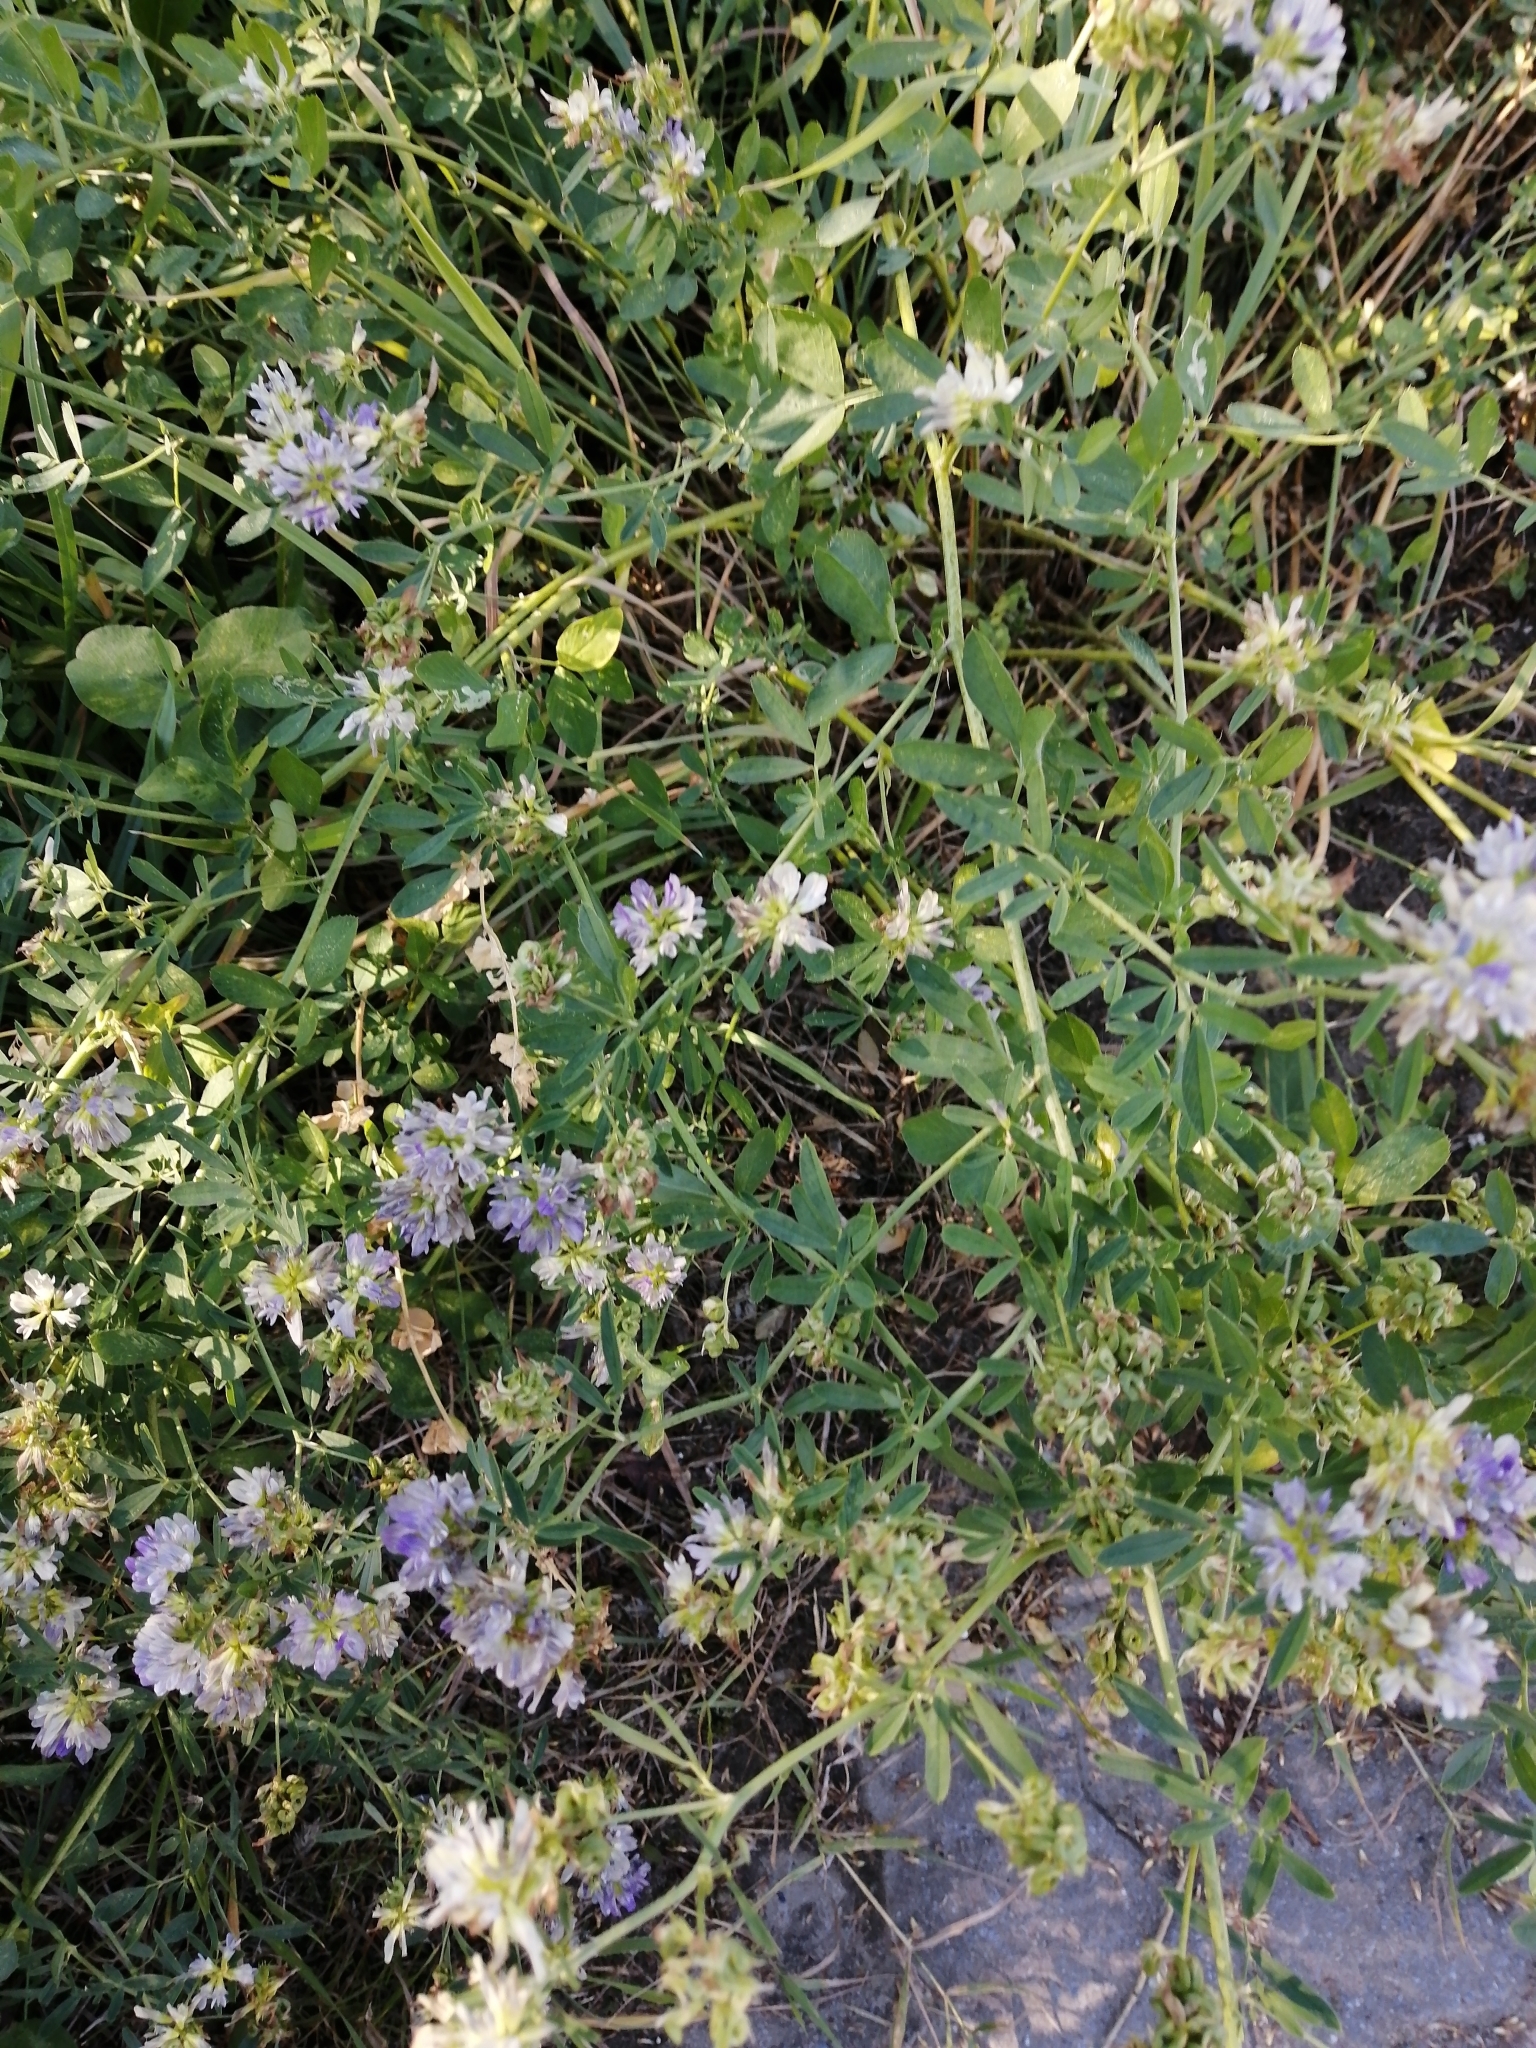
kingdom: Plantae
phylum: Tracheophyta
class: Magnoliopsida
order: Fabales
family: Fabaceae
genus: Medicago
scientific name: Medicago varia
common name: Sand lucerne
